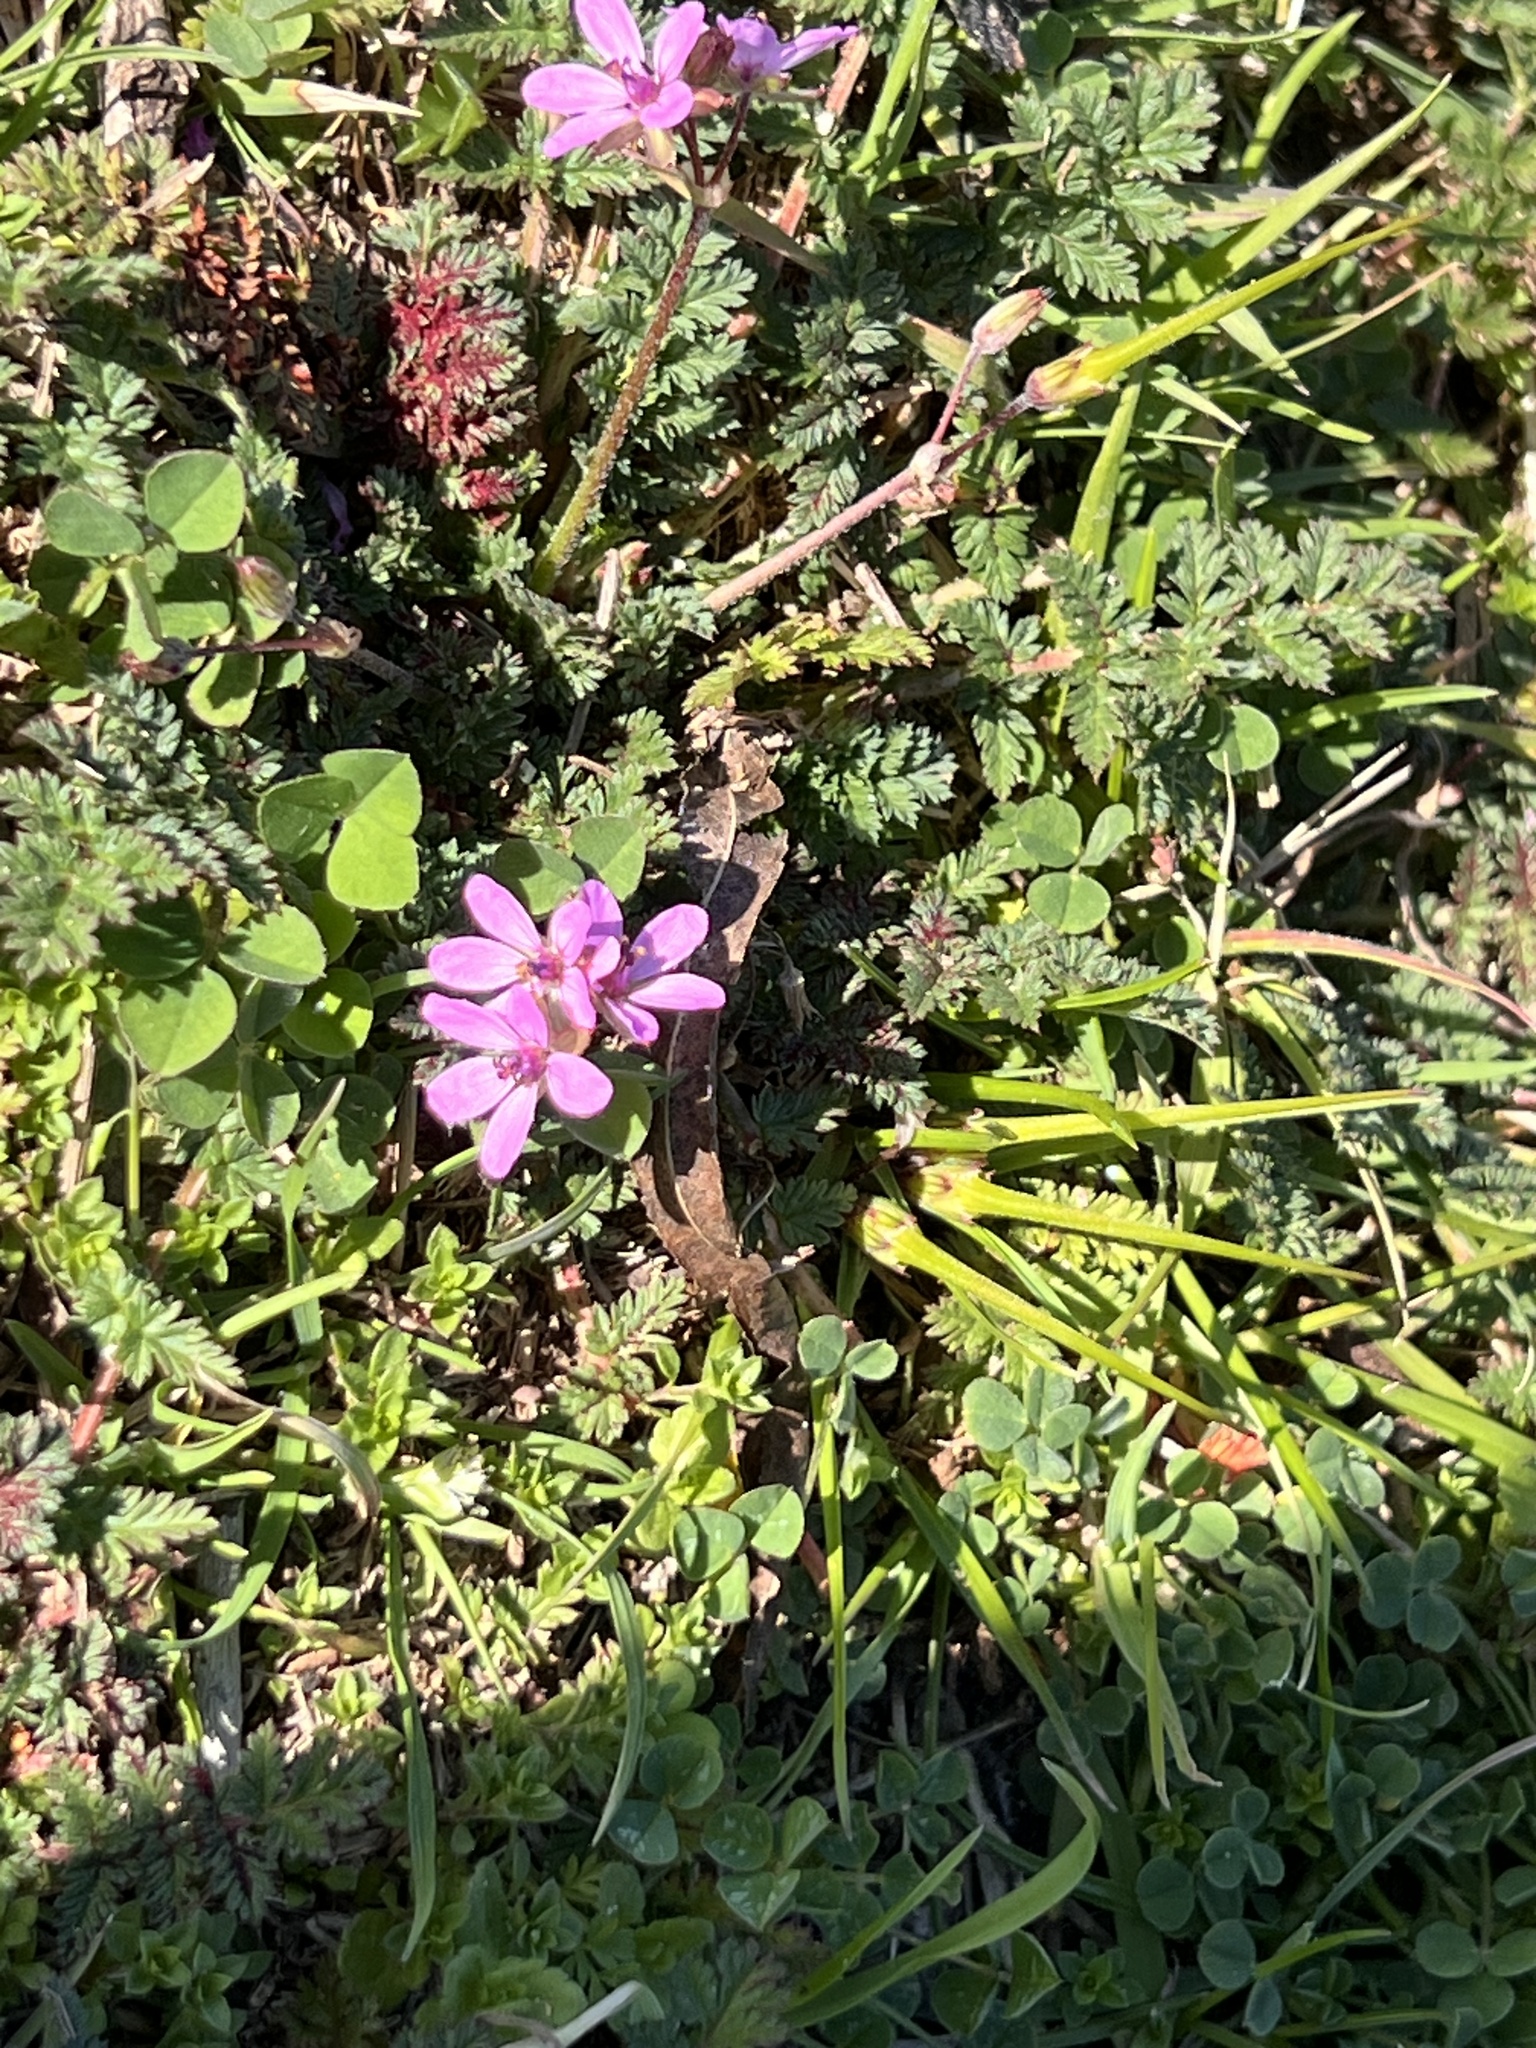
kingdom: Plantae
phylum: Tracheophyta
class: Magnoliopsida
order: Geraniales
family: Geraniaceae
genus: Erodium
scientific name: Erodium cicutarium
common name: Common stork's-bill
